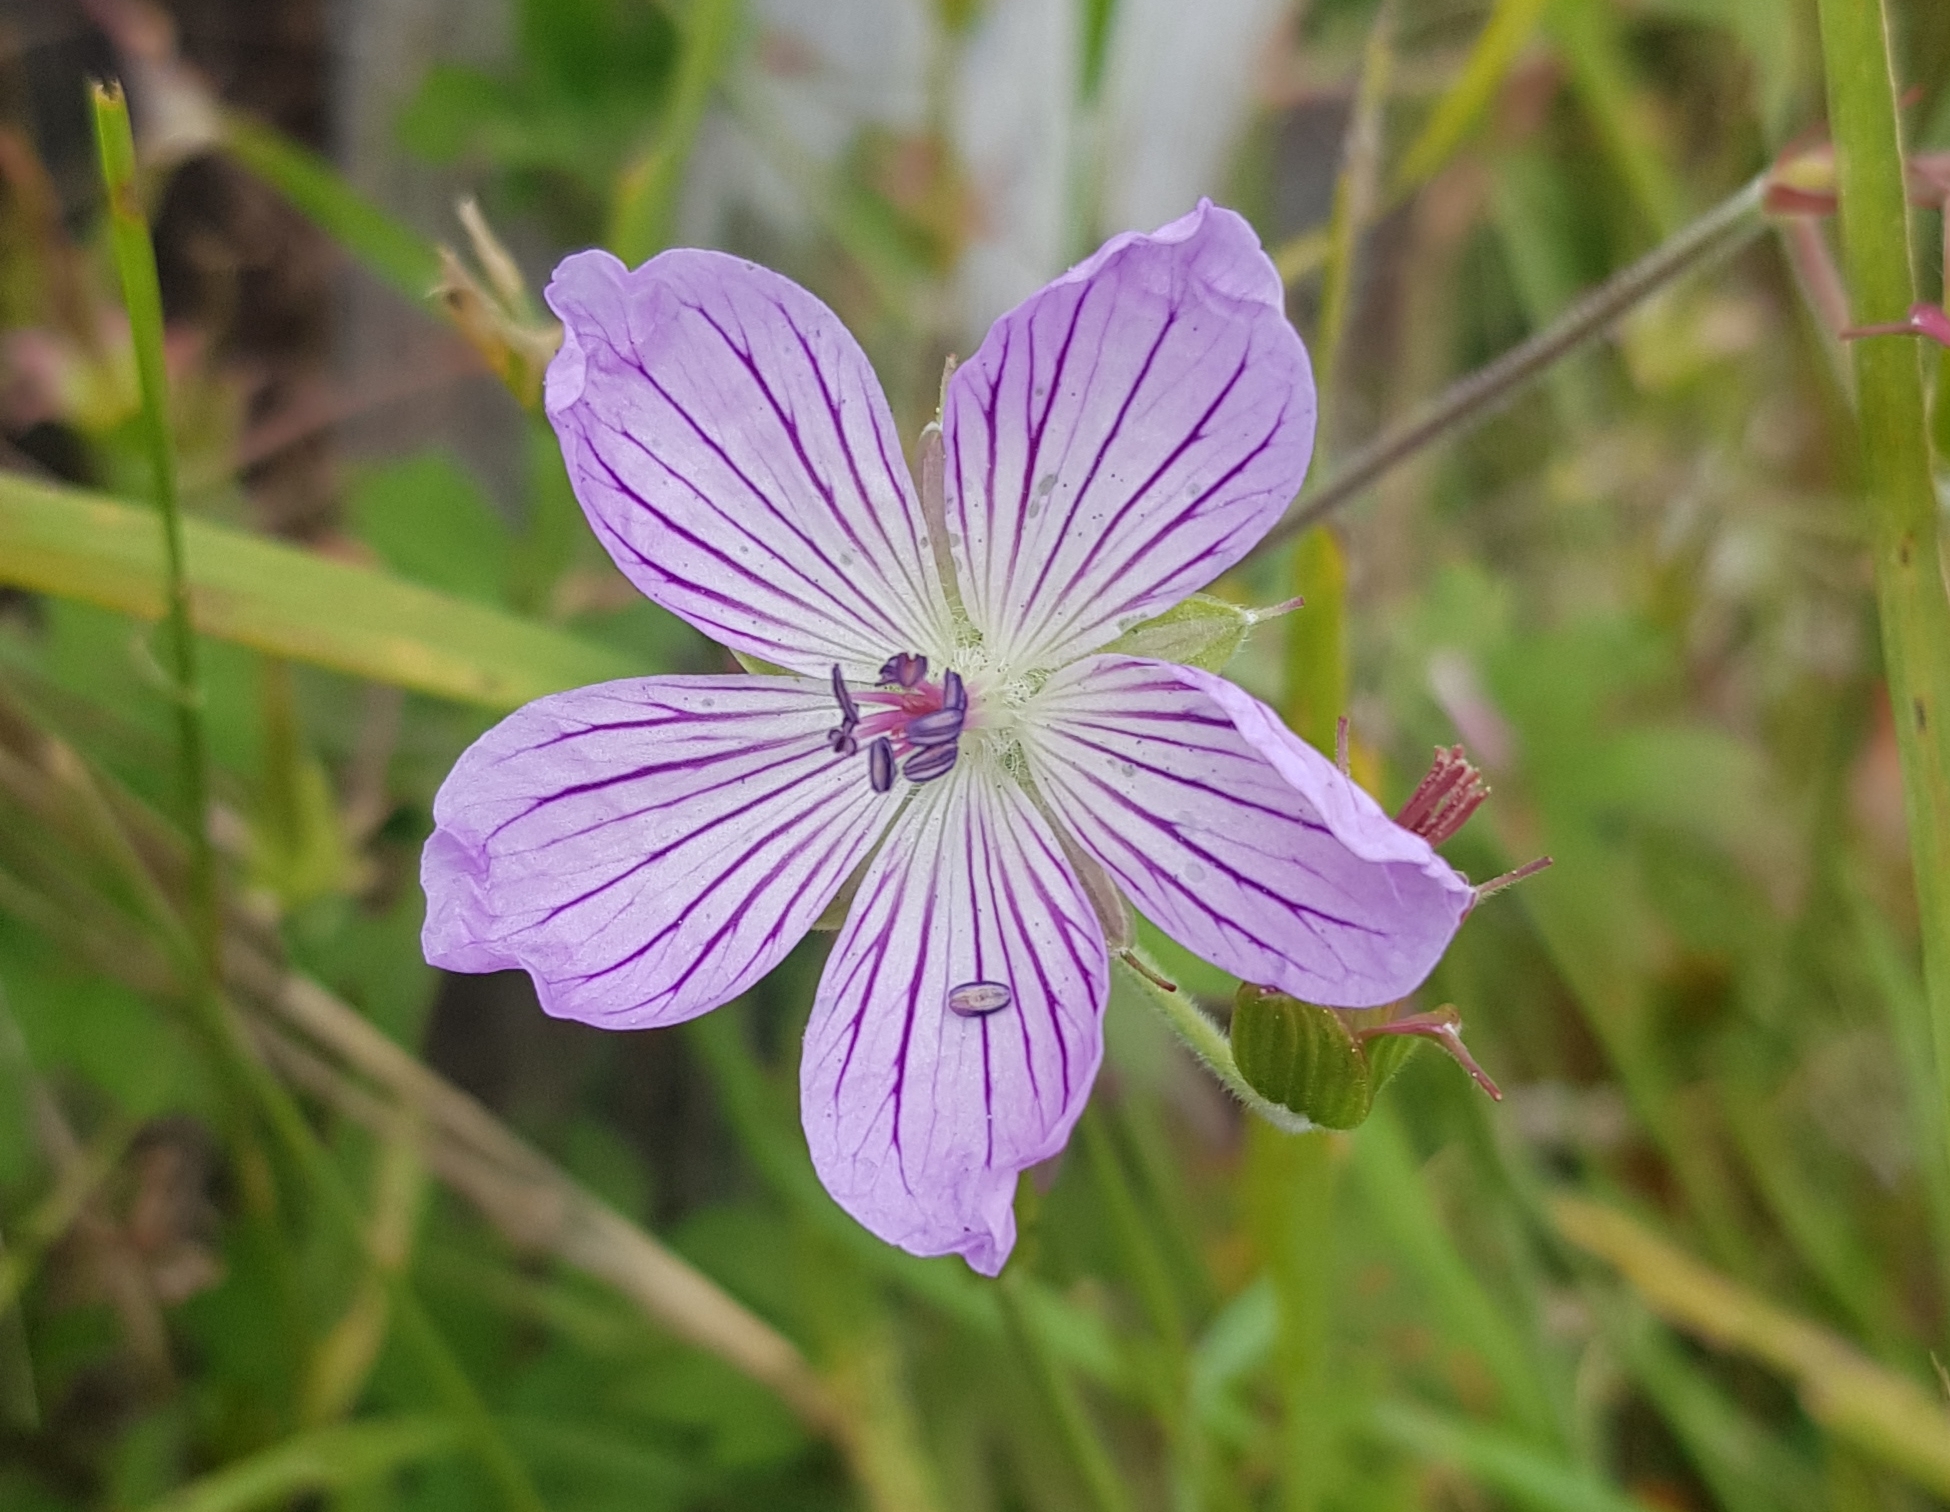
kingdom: Plantae
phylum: Tracheophyta
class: Magnoliopsida
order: Geraniales
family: Geraniaceae
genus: Geranium
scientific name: Geranium wlassovianum
